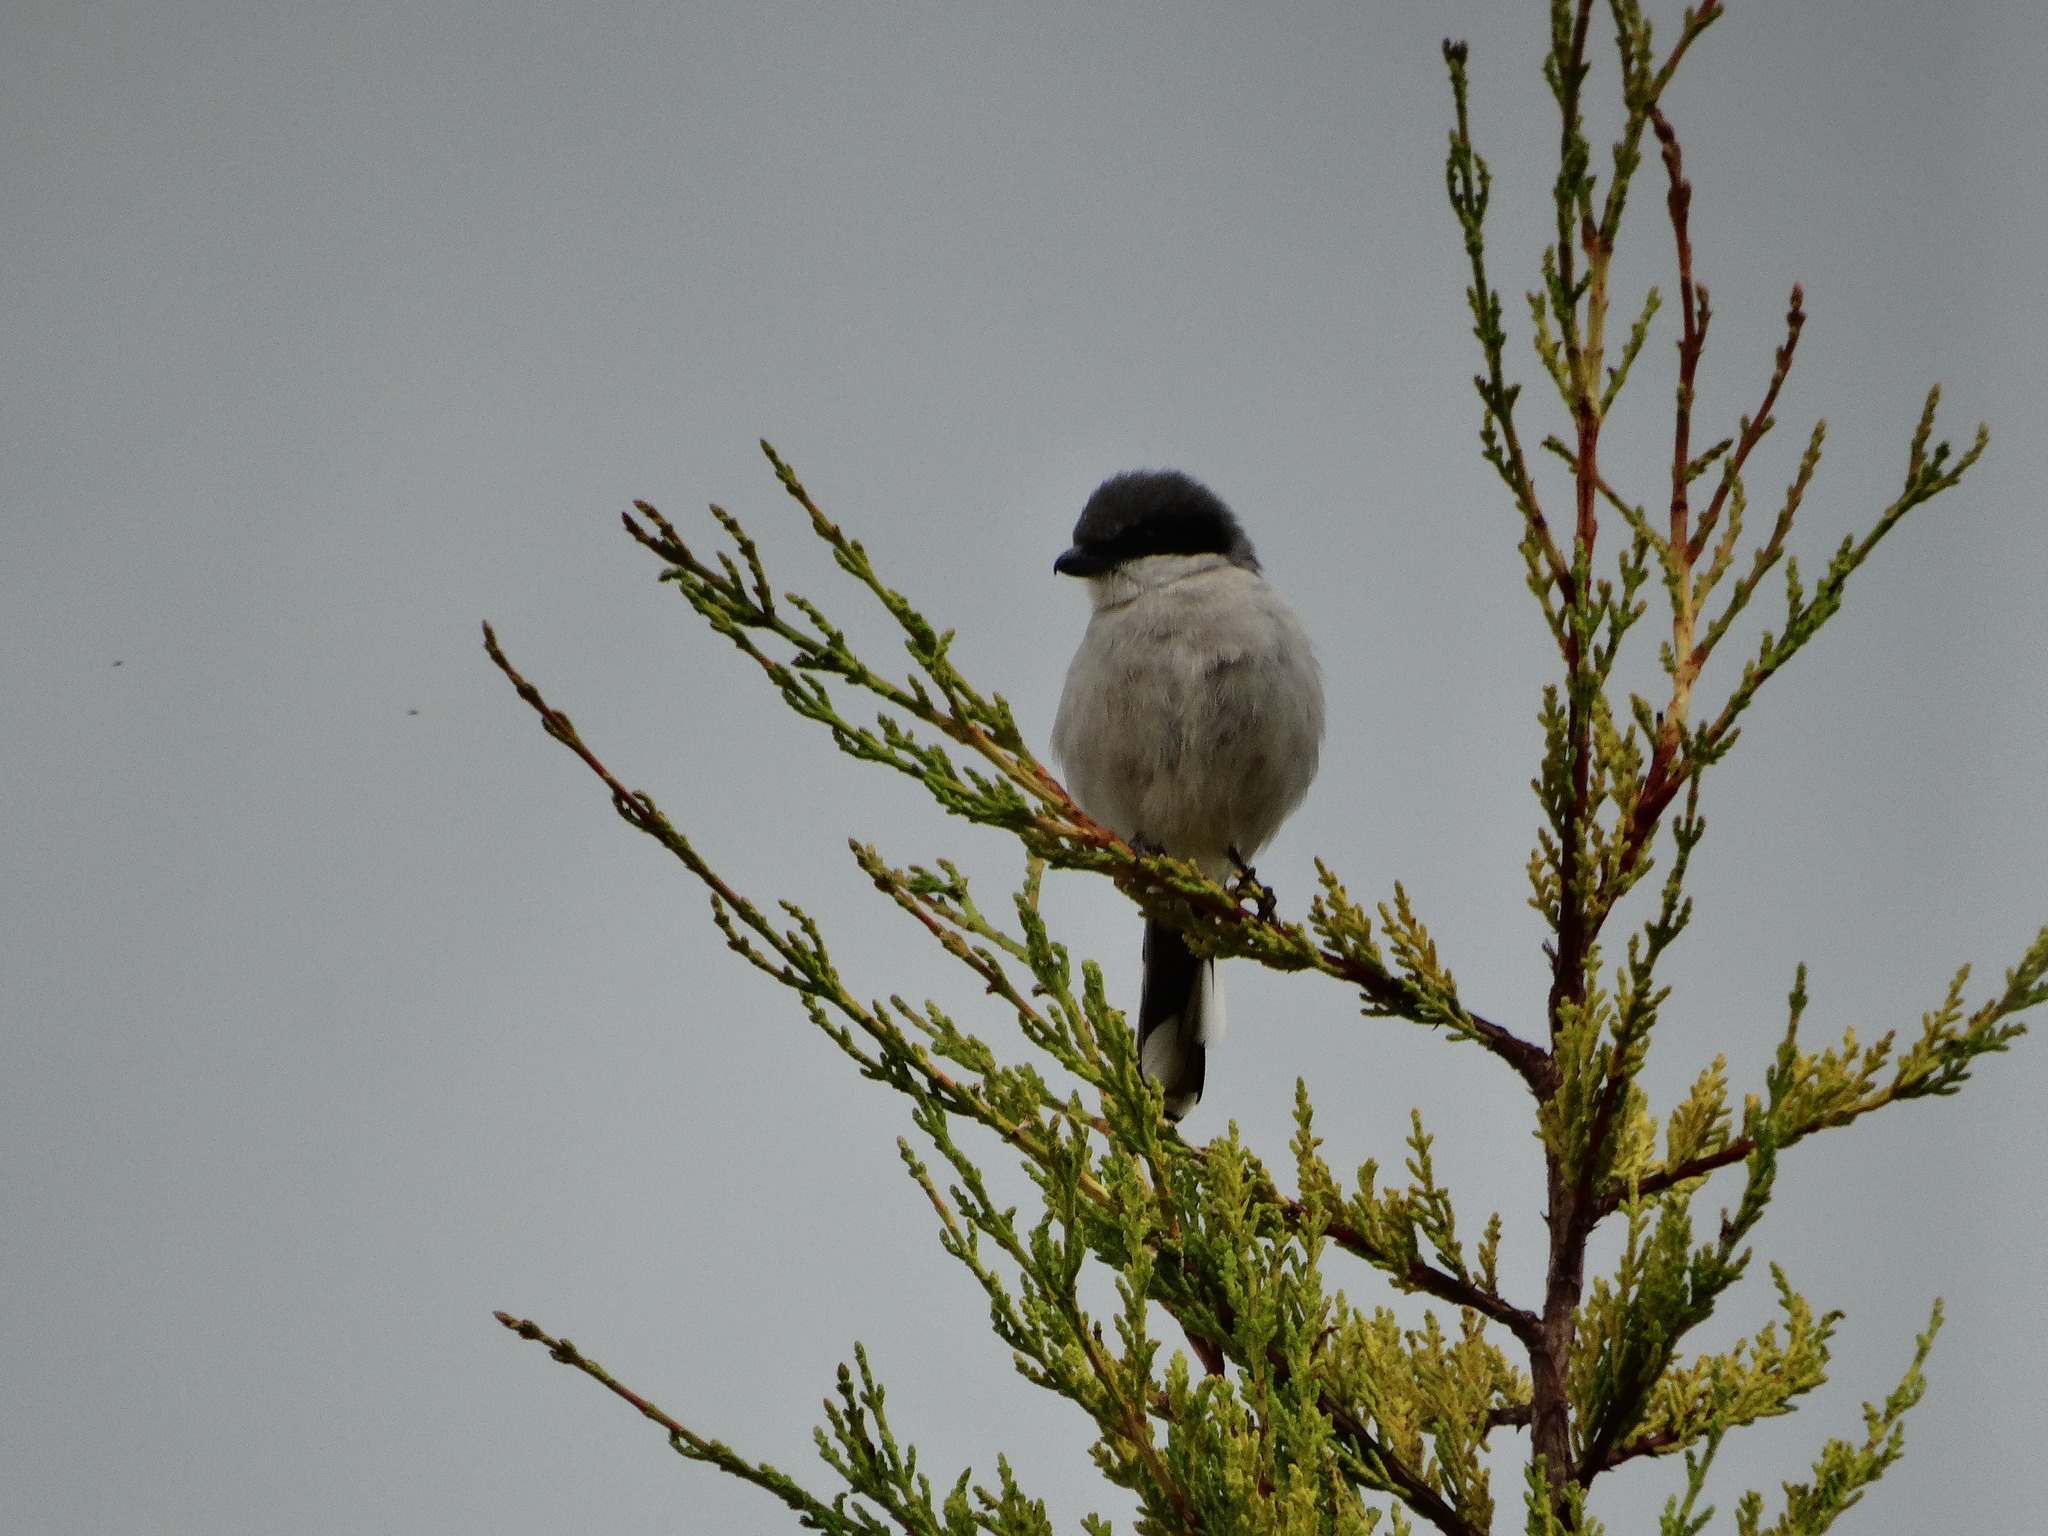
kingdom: Animalia
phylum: Chordata
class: Aves
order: Passeriformes
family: Laniidae
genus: Lanius
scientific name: Lanius ludovicianus
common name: Loggerhead shrike
